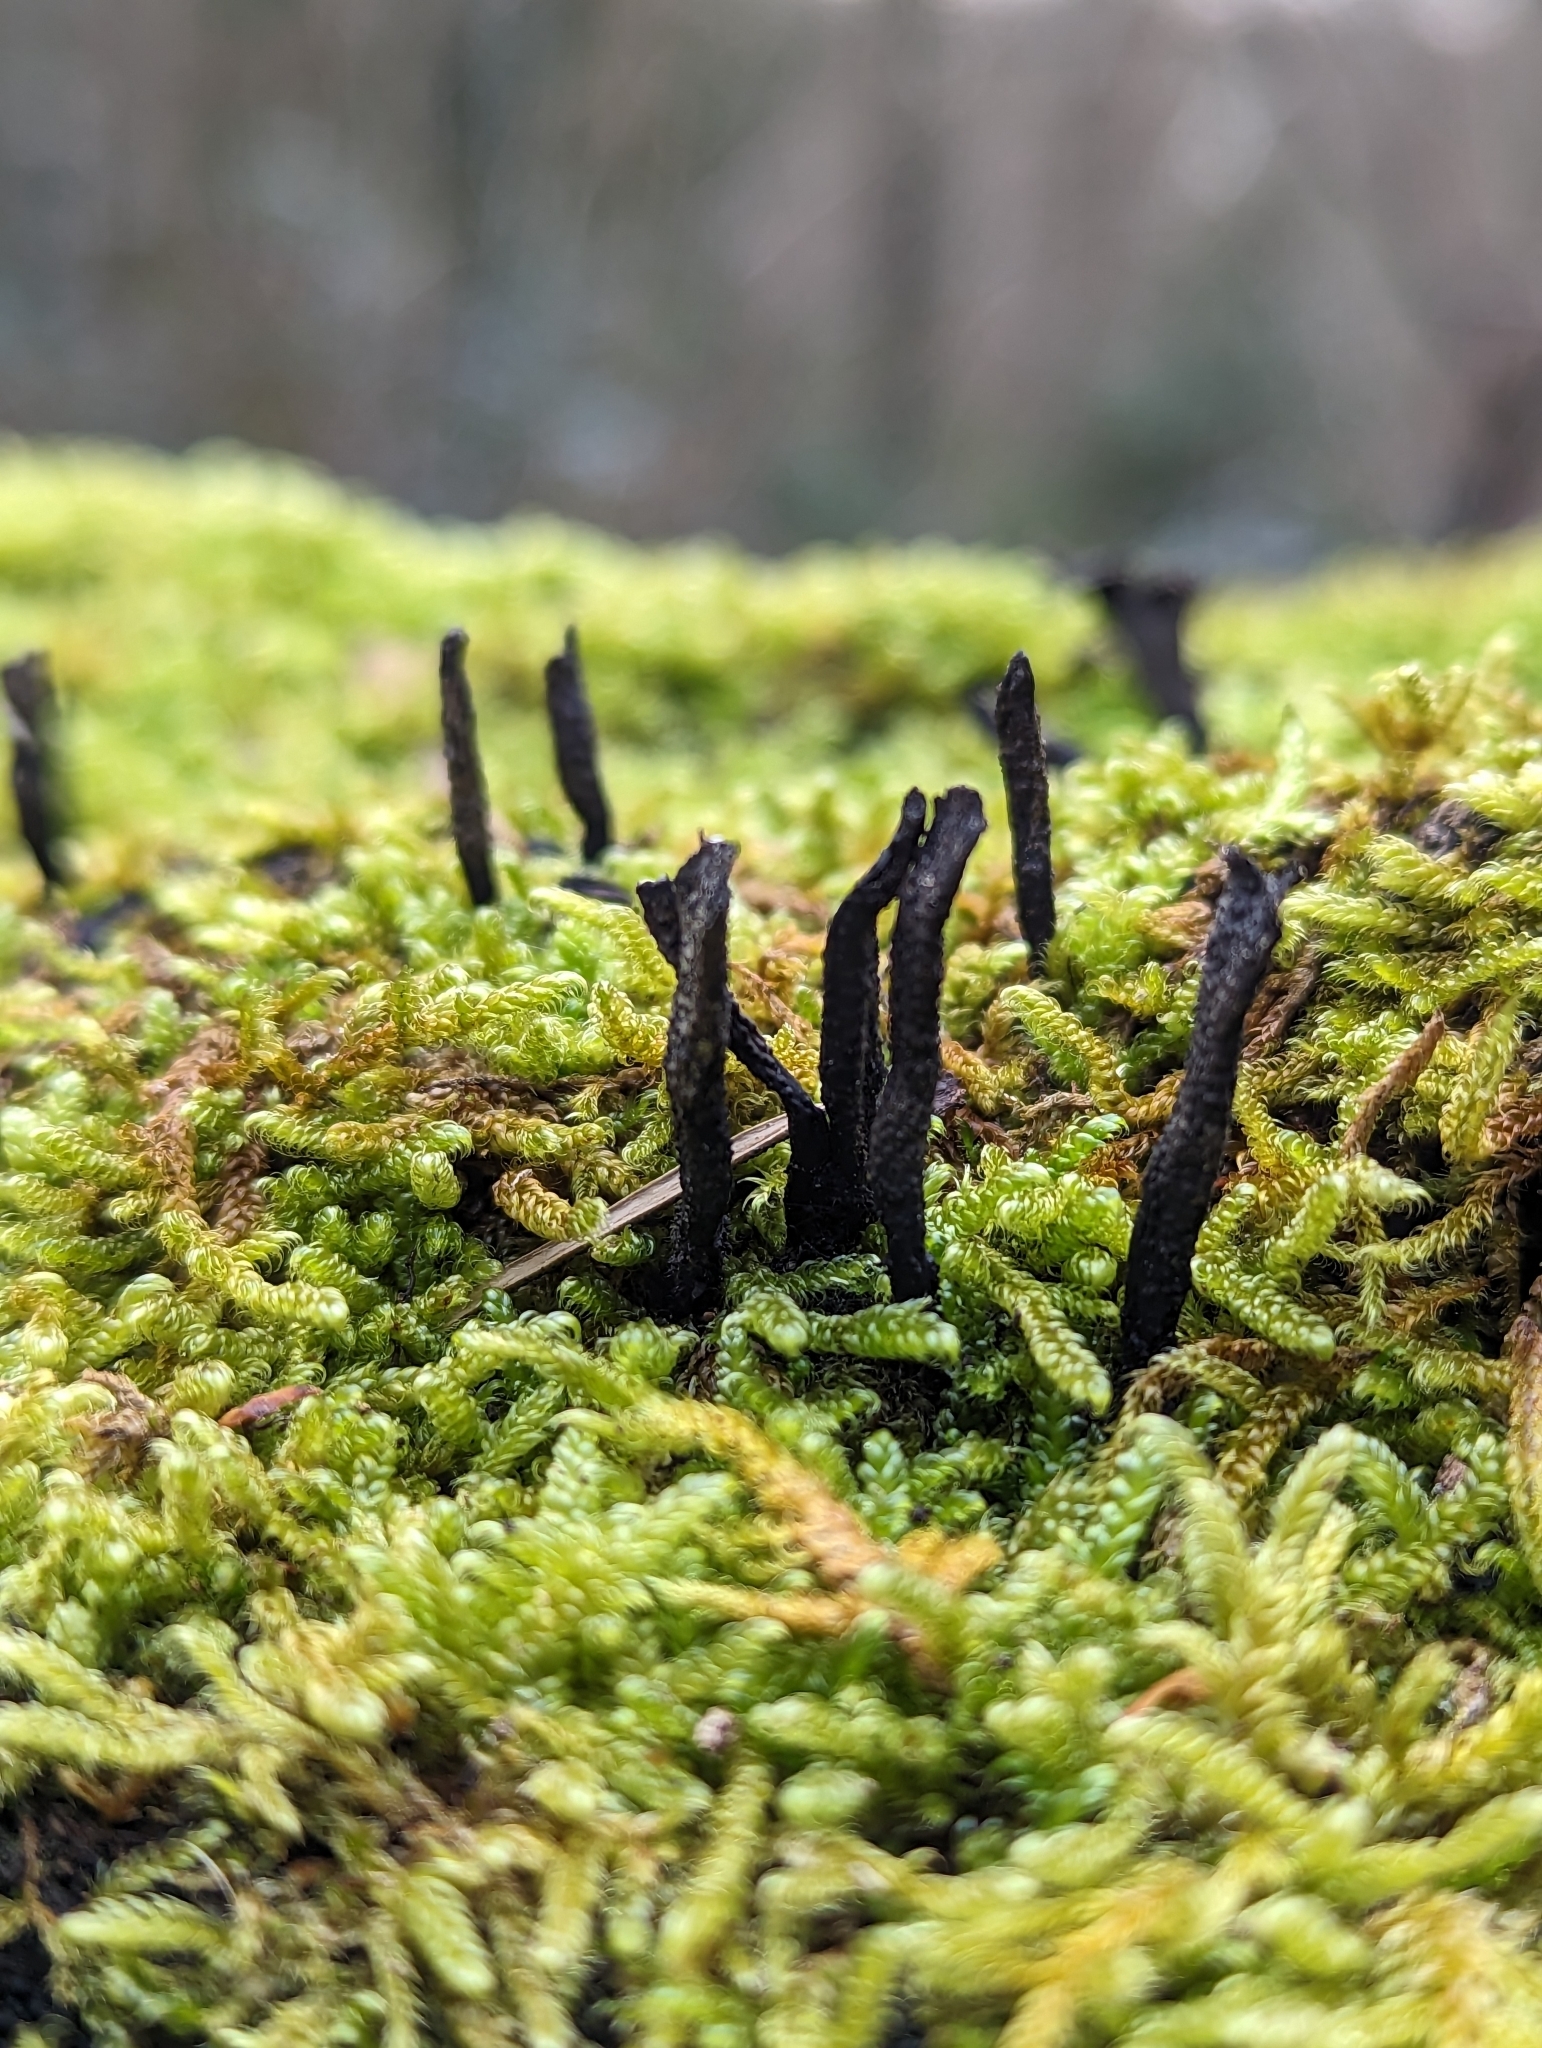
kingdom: Fungi
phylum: Ascomycota
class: Sordariomycetes
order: Xylariales
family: Xylariaceae
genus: Xylaria
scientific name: Xylaria hypoxylon
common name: Candle-snuff fungus
